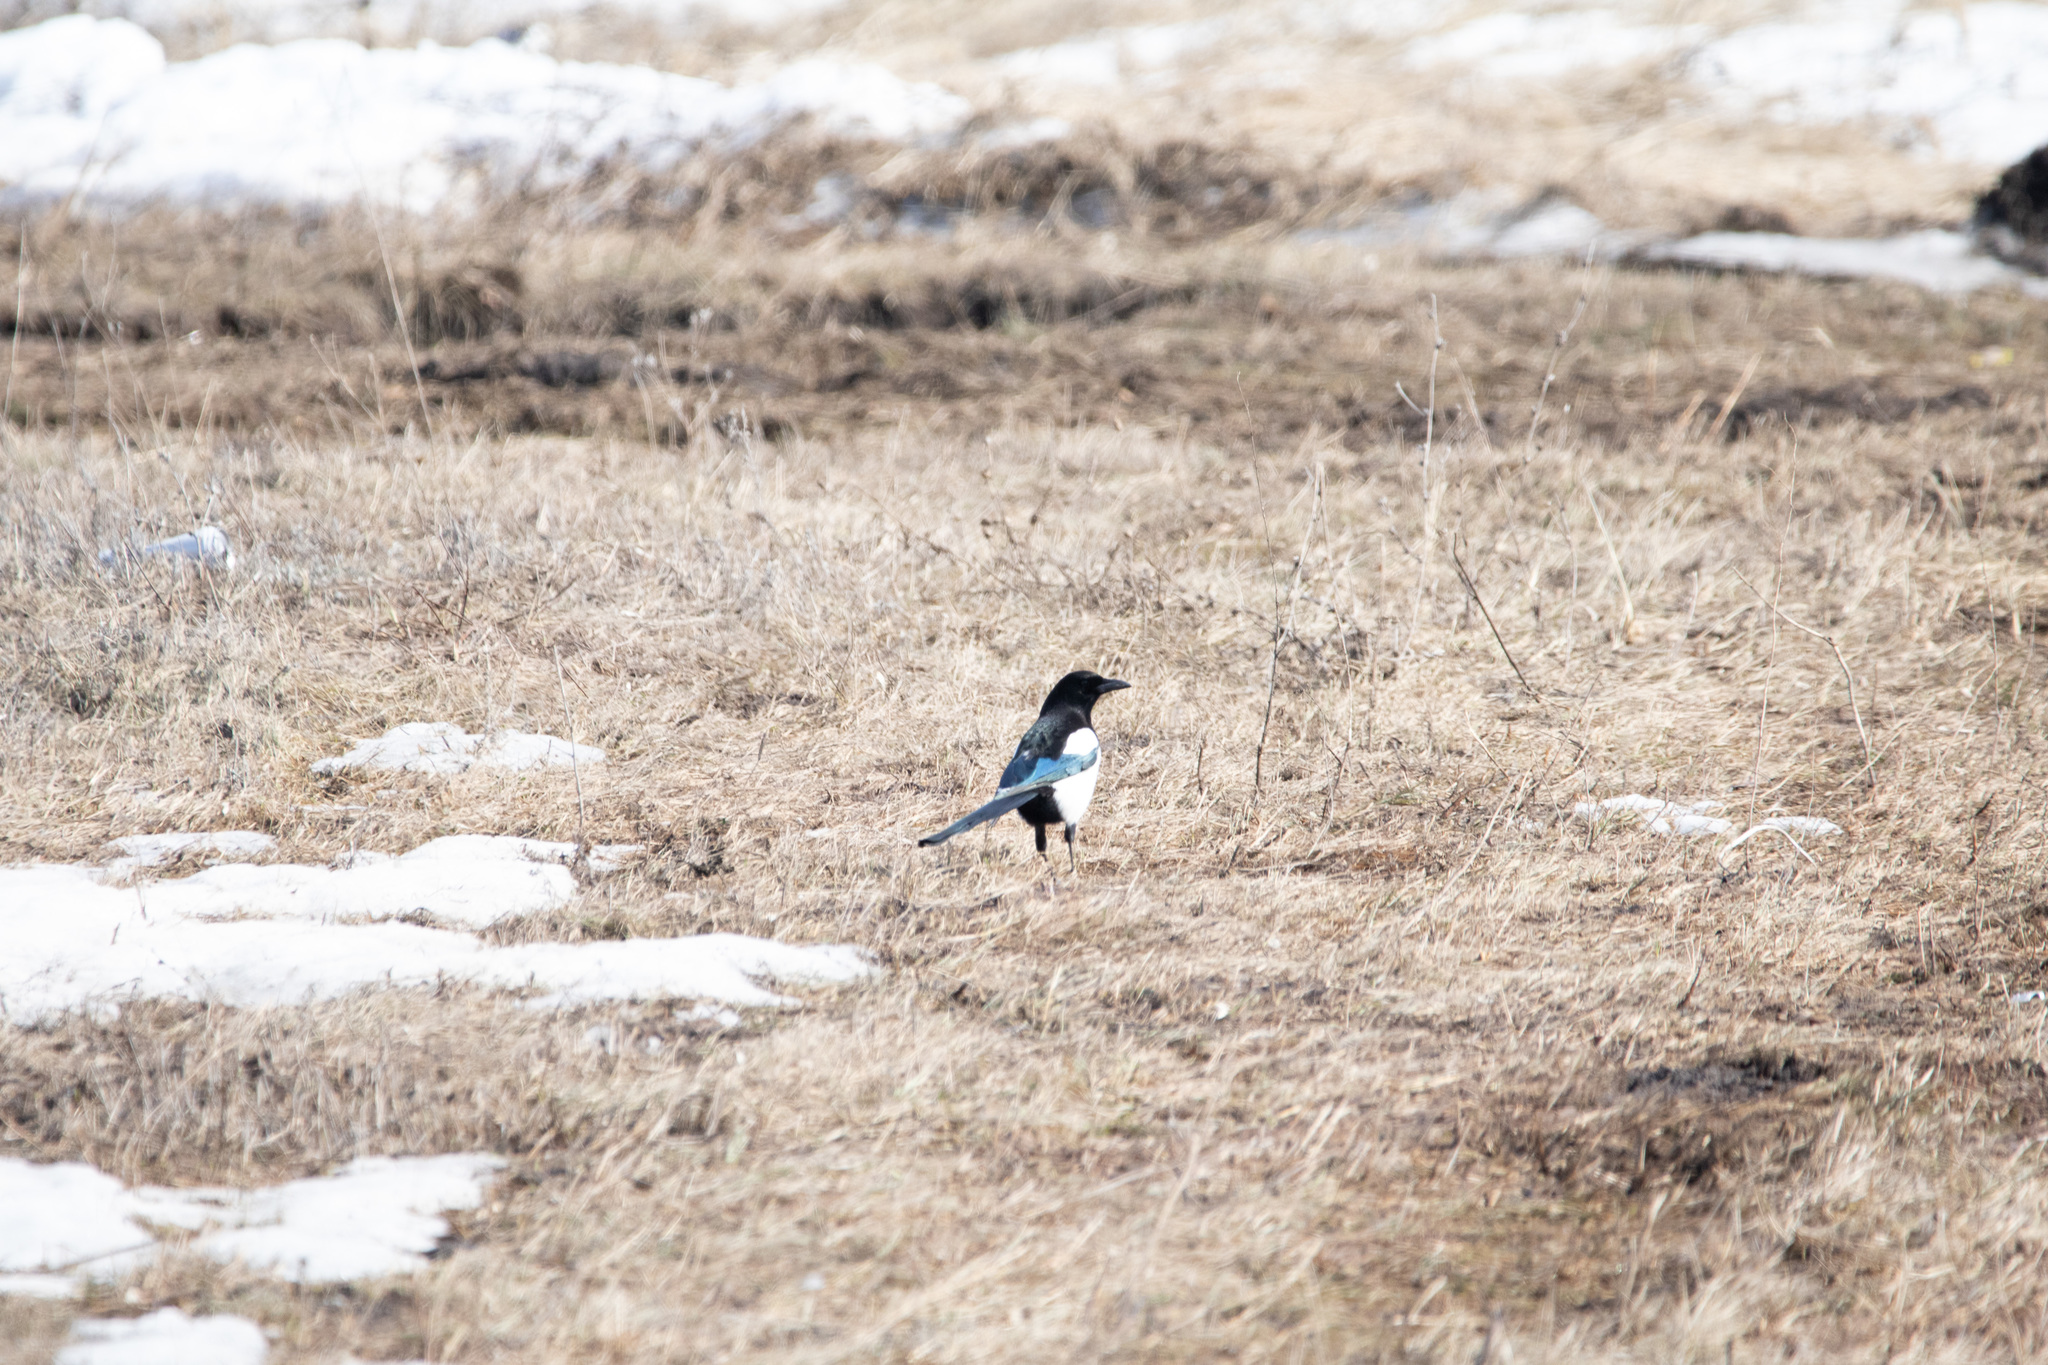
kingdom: Animalia
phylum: Chordata
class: Aves
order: Passeriformes
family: Corvidae
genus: Pica
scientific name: Pica pica
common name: Eurasian magpie
